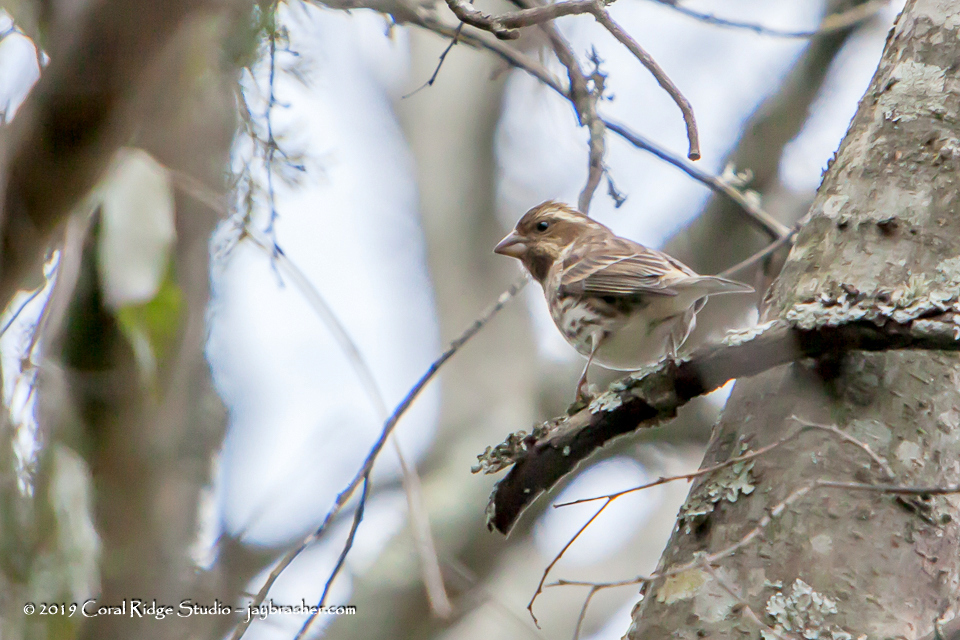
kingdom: Animalia
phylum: Chordata
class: Aves
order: Passeriformes
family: Fringillidae
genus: Haemorhous
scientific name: Haemorhous purpureus
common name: Purple finch
